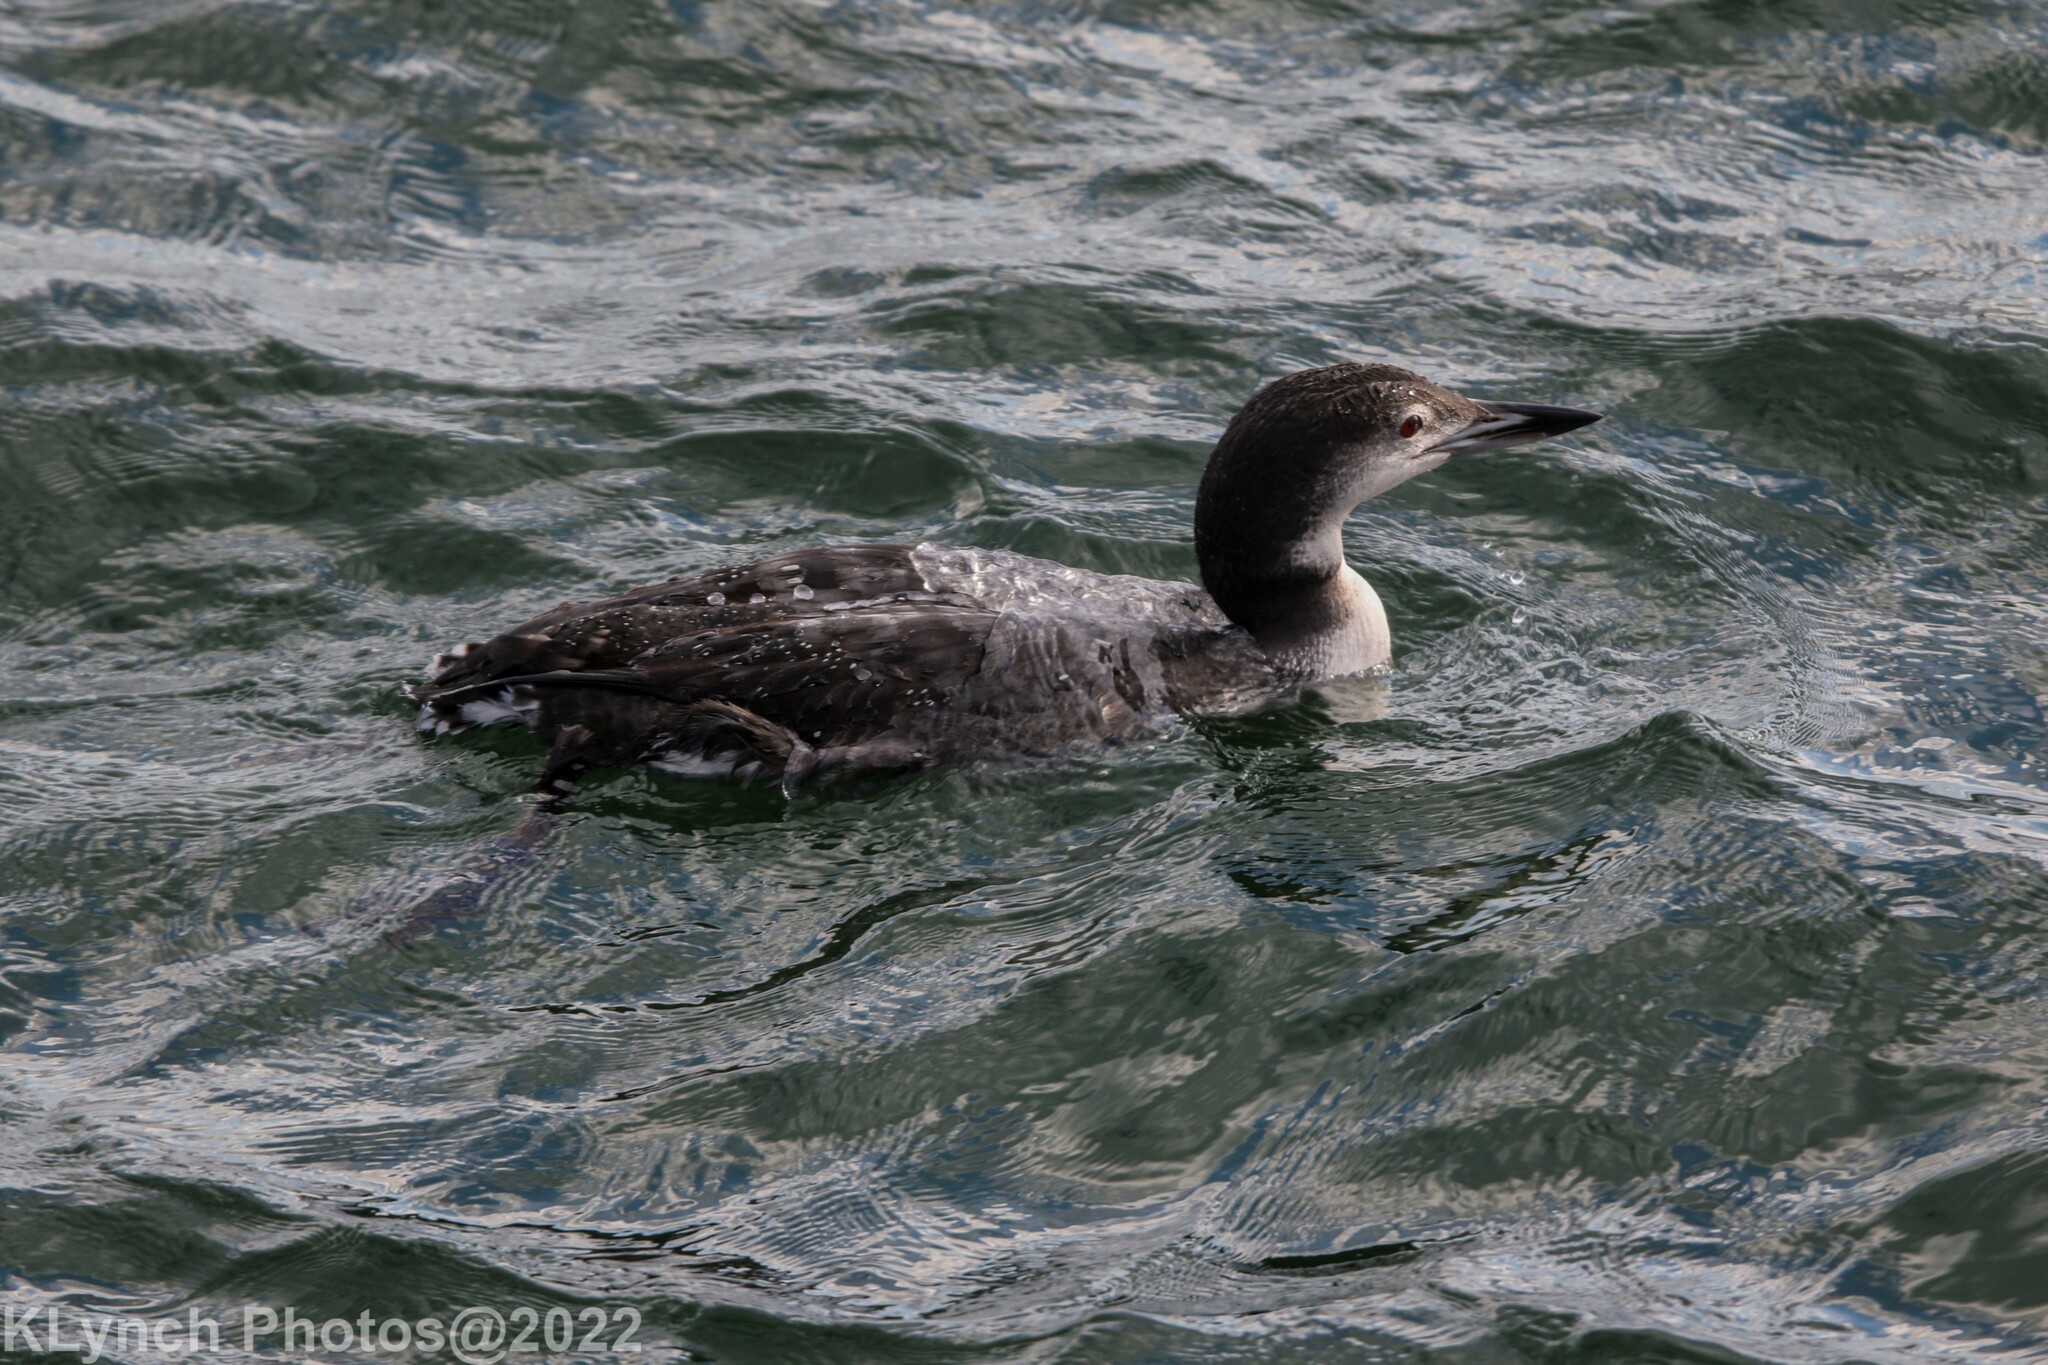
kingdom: Animalia
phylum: Chordata
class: Aves
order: Gaviiformes
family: Gaviidae
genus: Gavia
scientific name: Gavia immer
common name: Common loon
